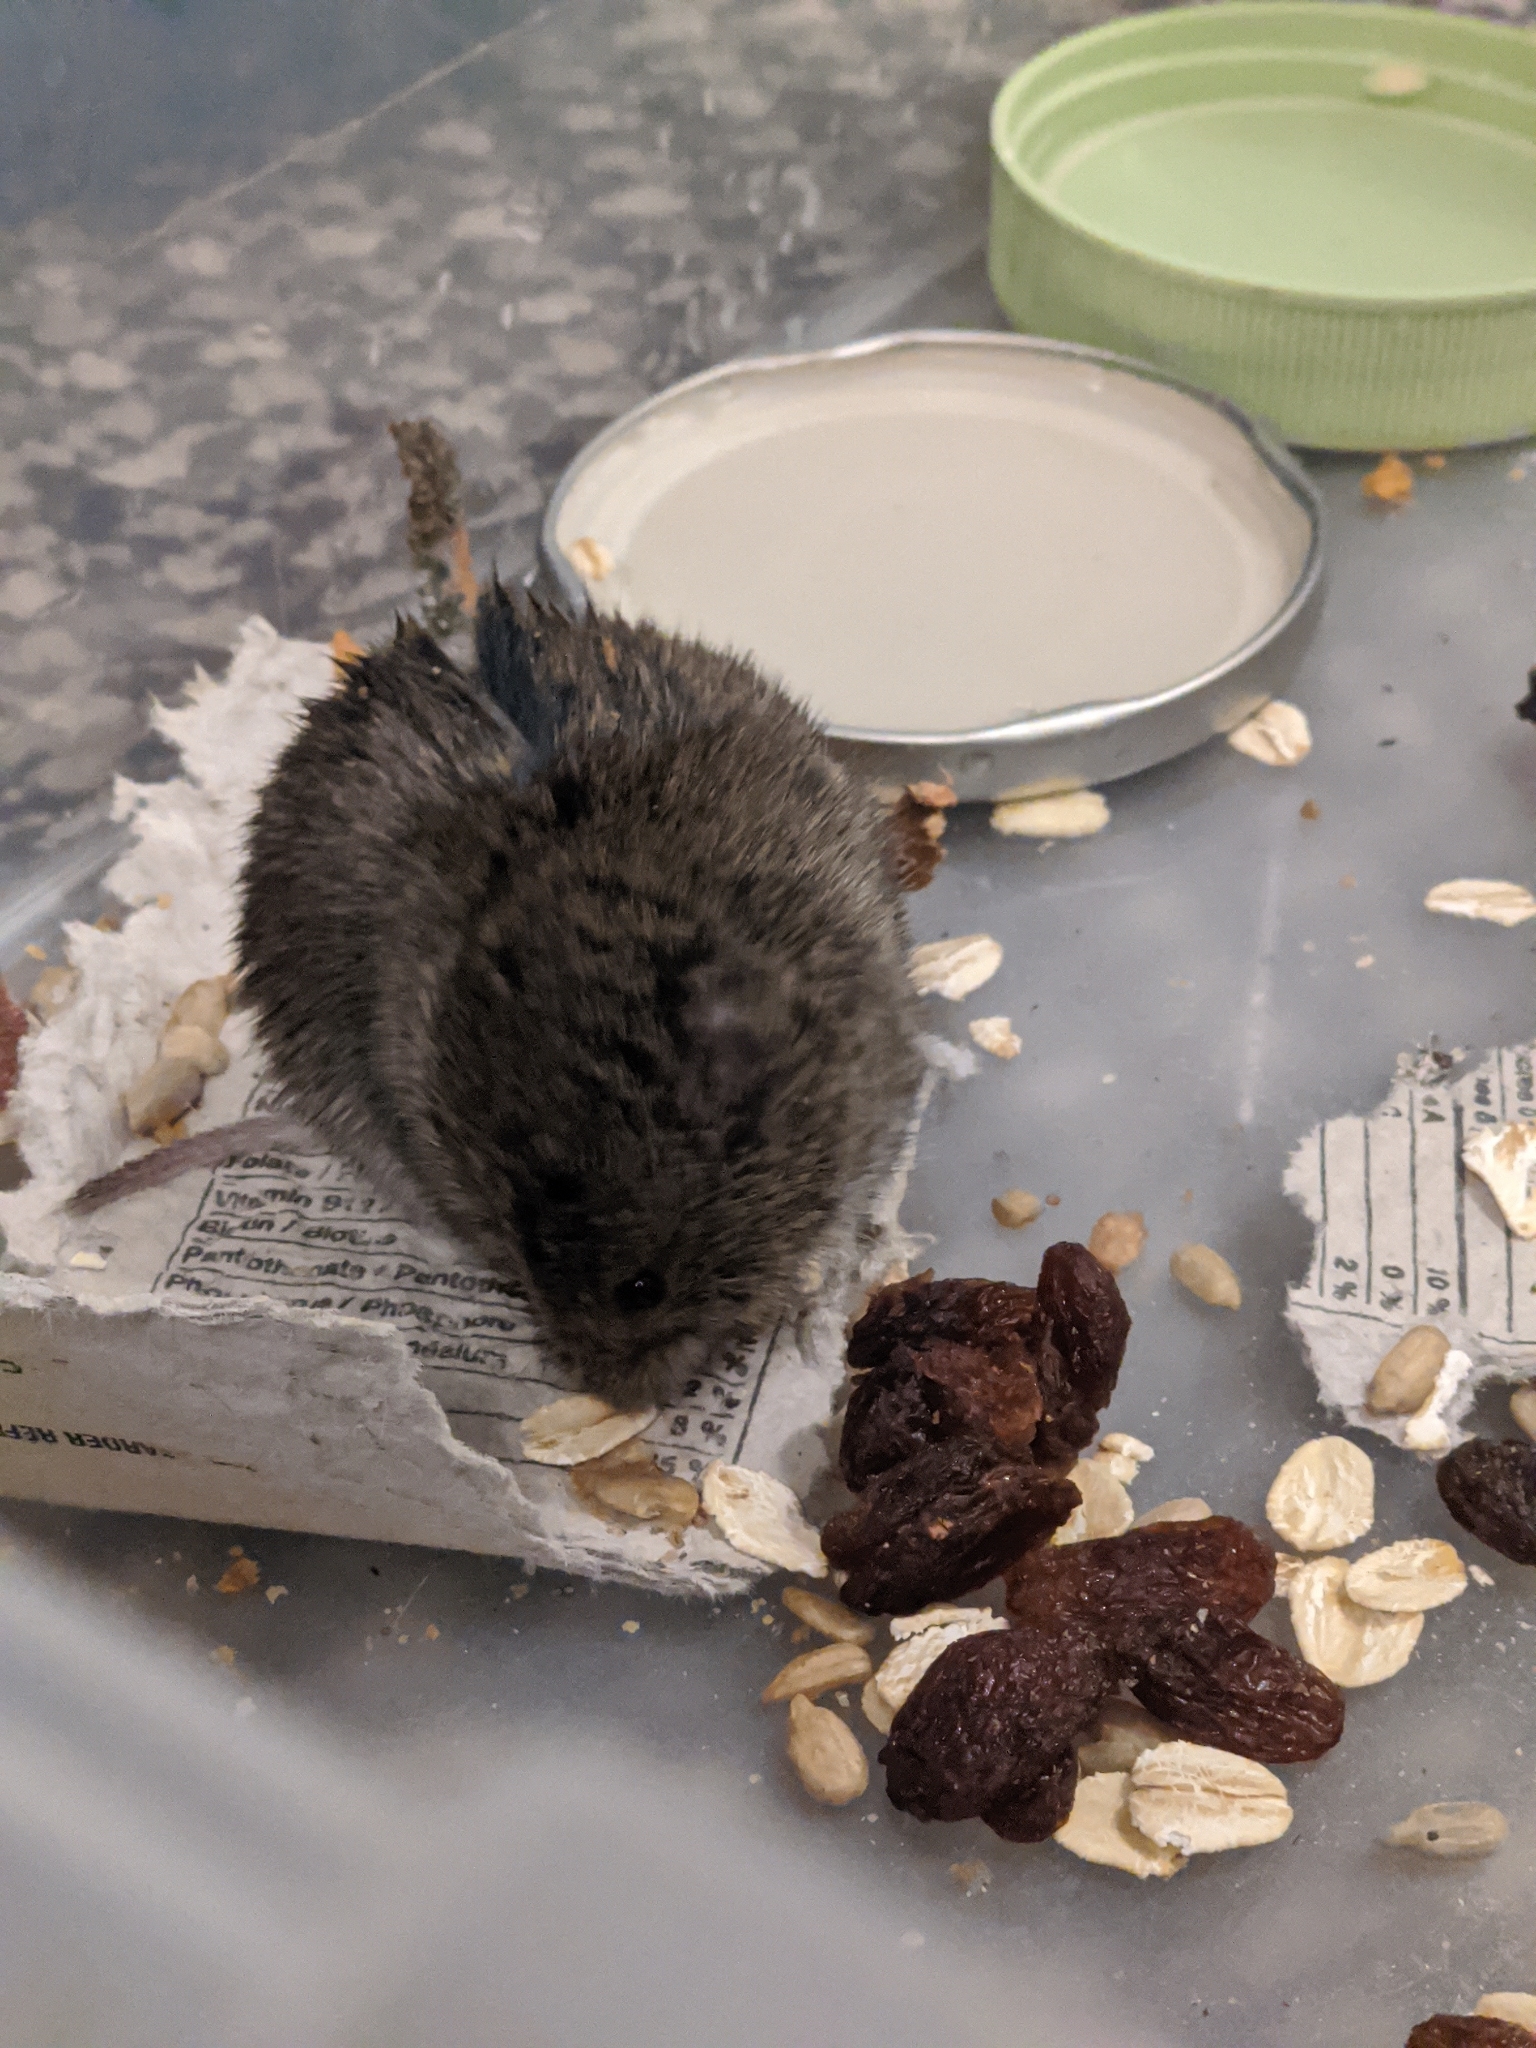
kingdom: Animalia
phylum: Chordata
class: Mammalia
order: Rodentia
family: Cricetidae
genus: Microtus
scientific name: Microtus pennsylvanicus
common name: Meadow vole
